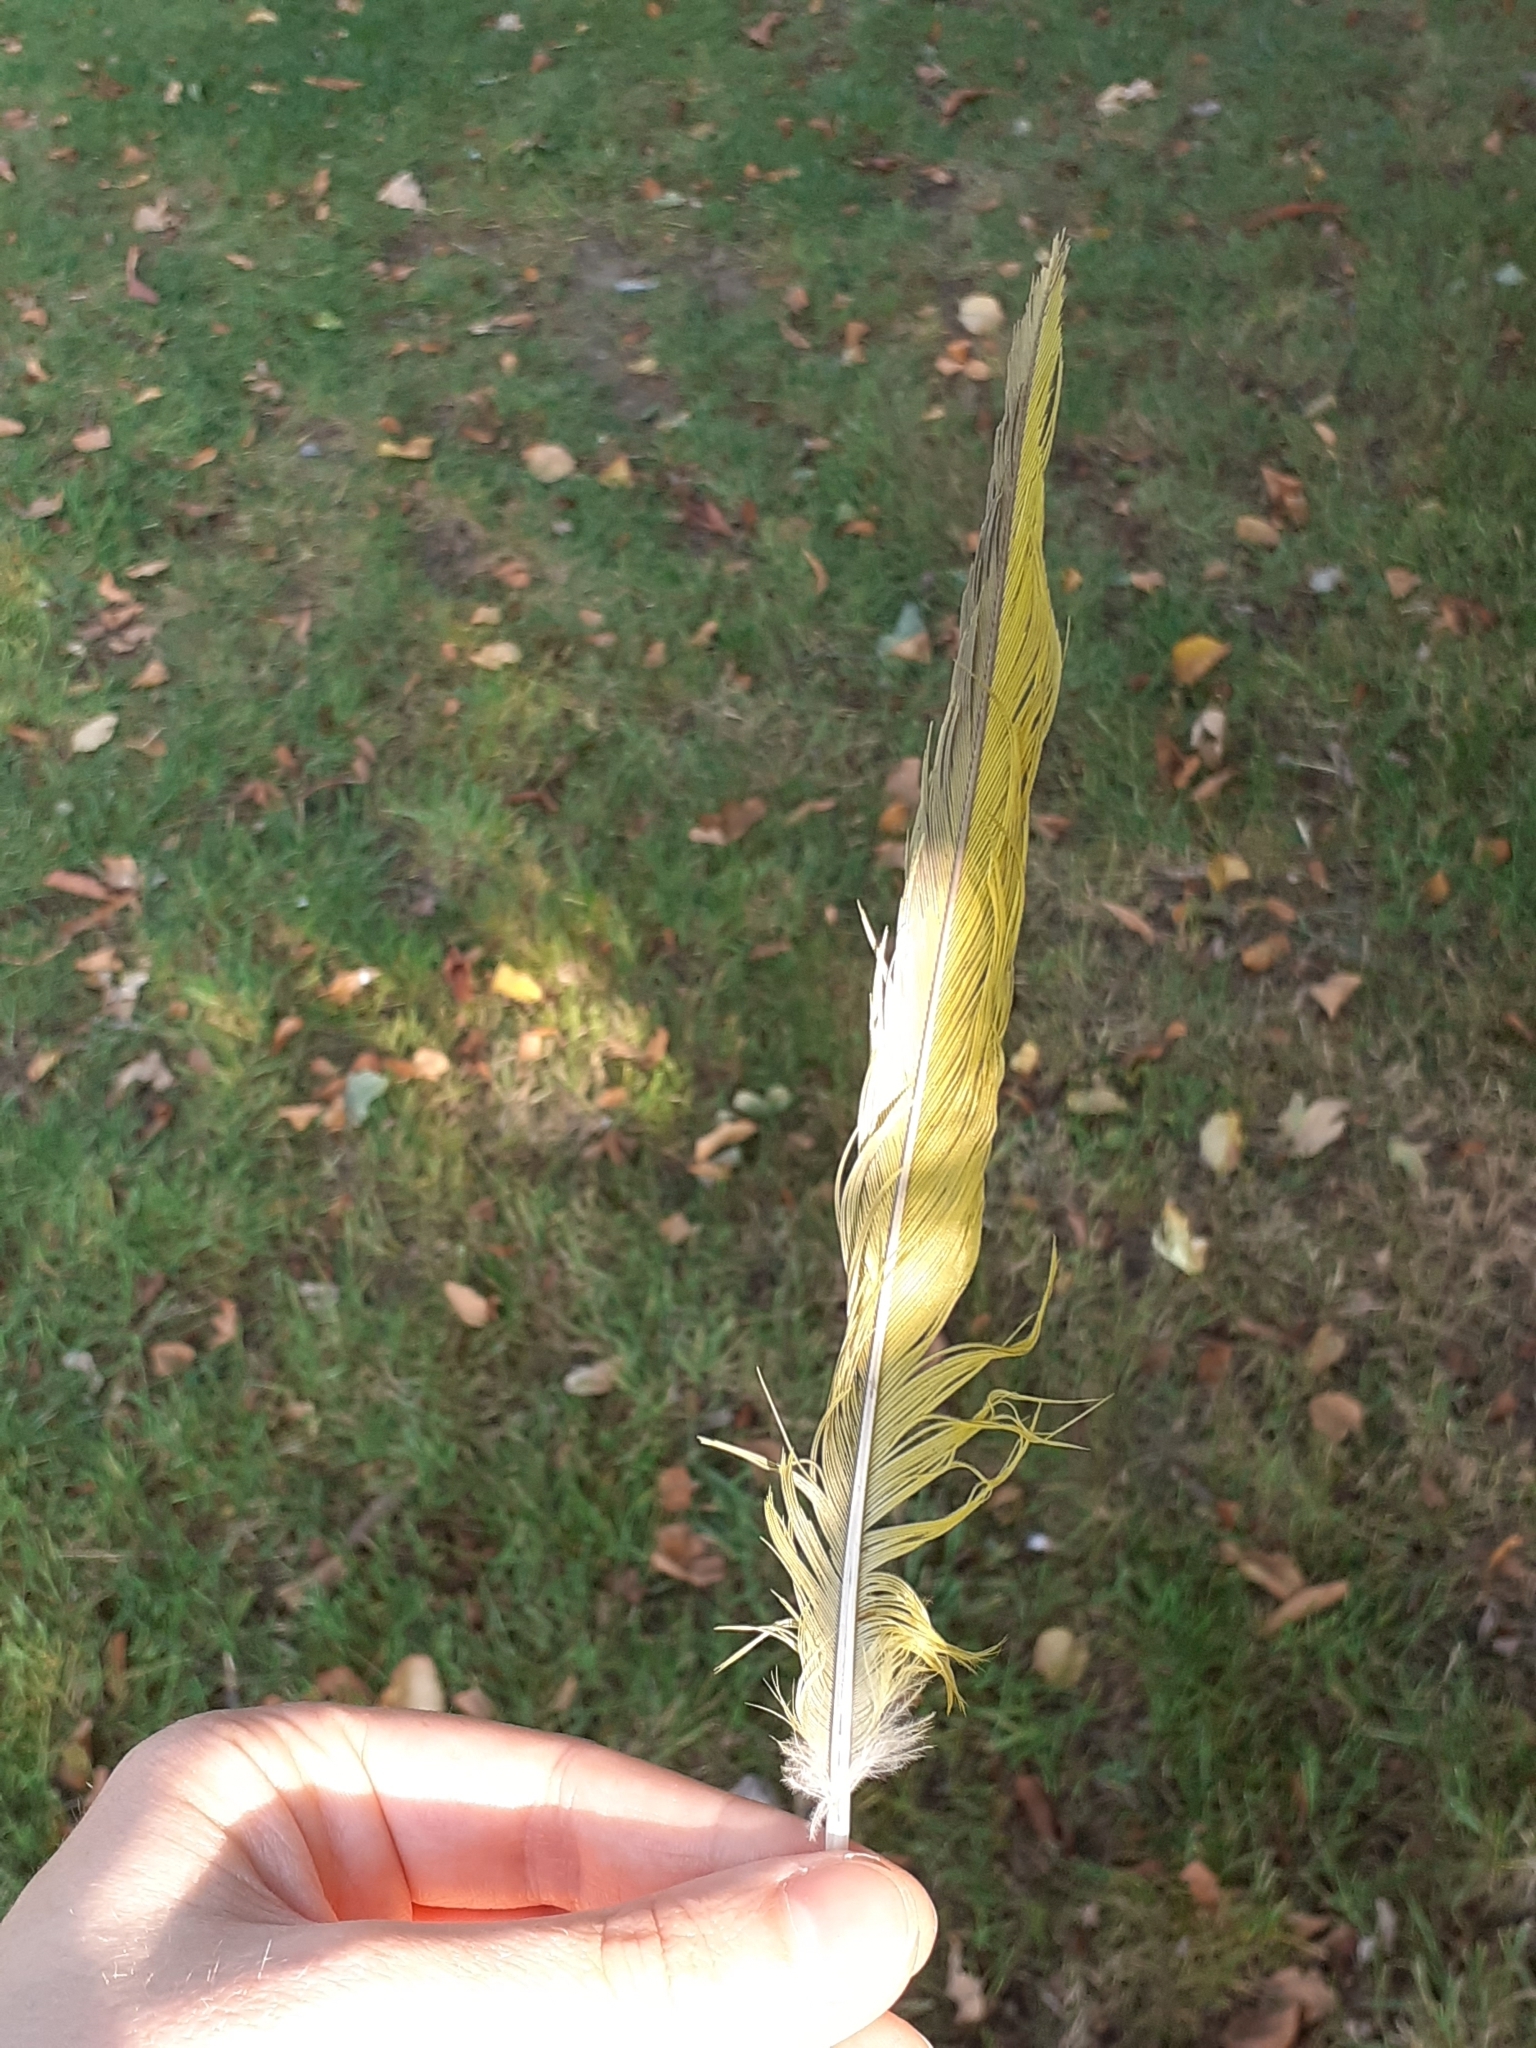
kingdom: Animalia
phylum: Chordata
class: Aves
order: Psittaciformes
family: Psittacidae
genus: Psittacula
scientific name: Psittacula krameri
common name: Rose-ringed parakeet
